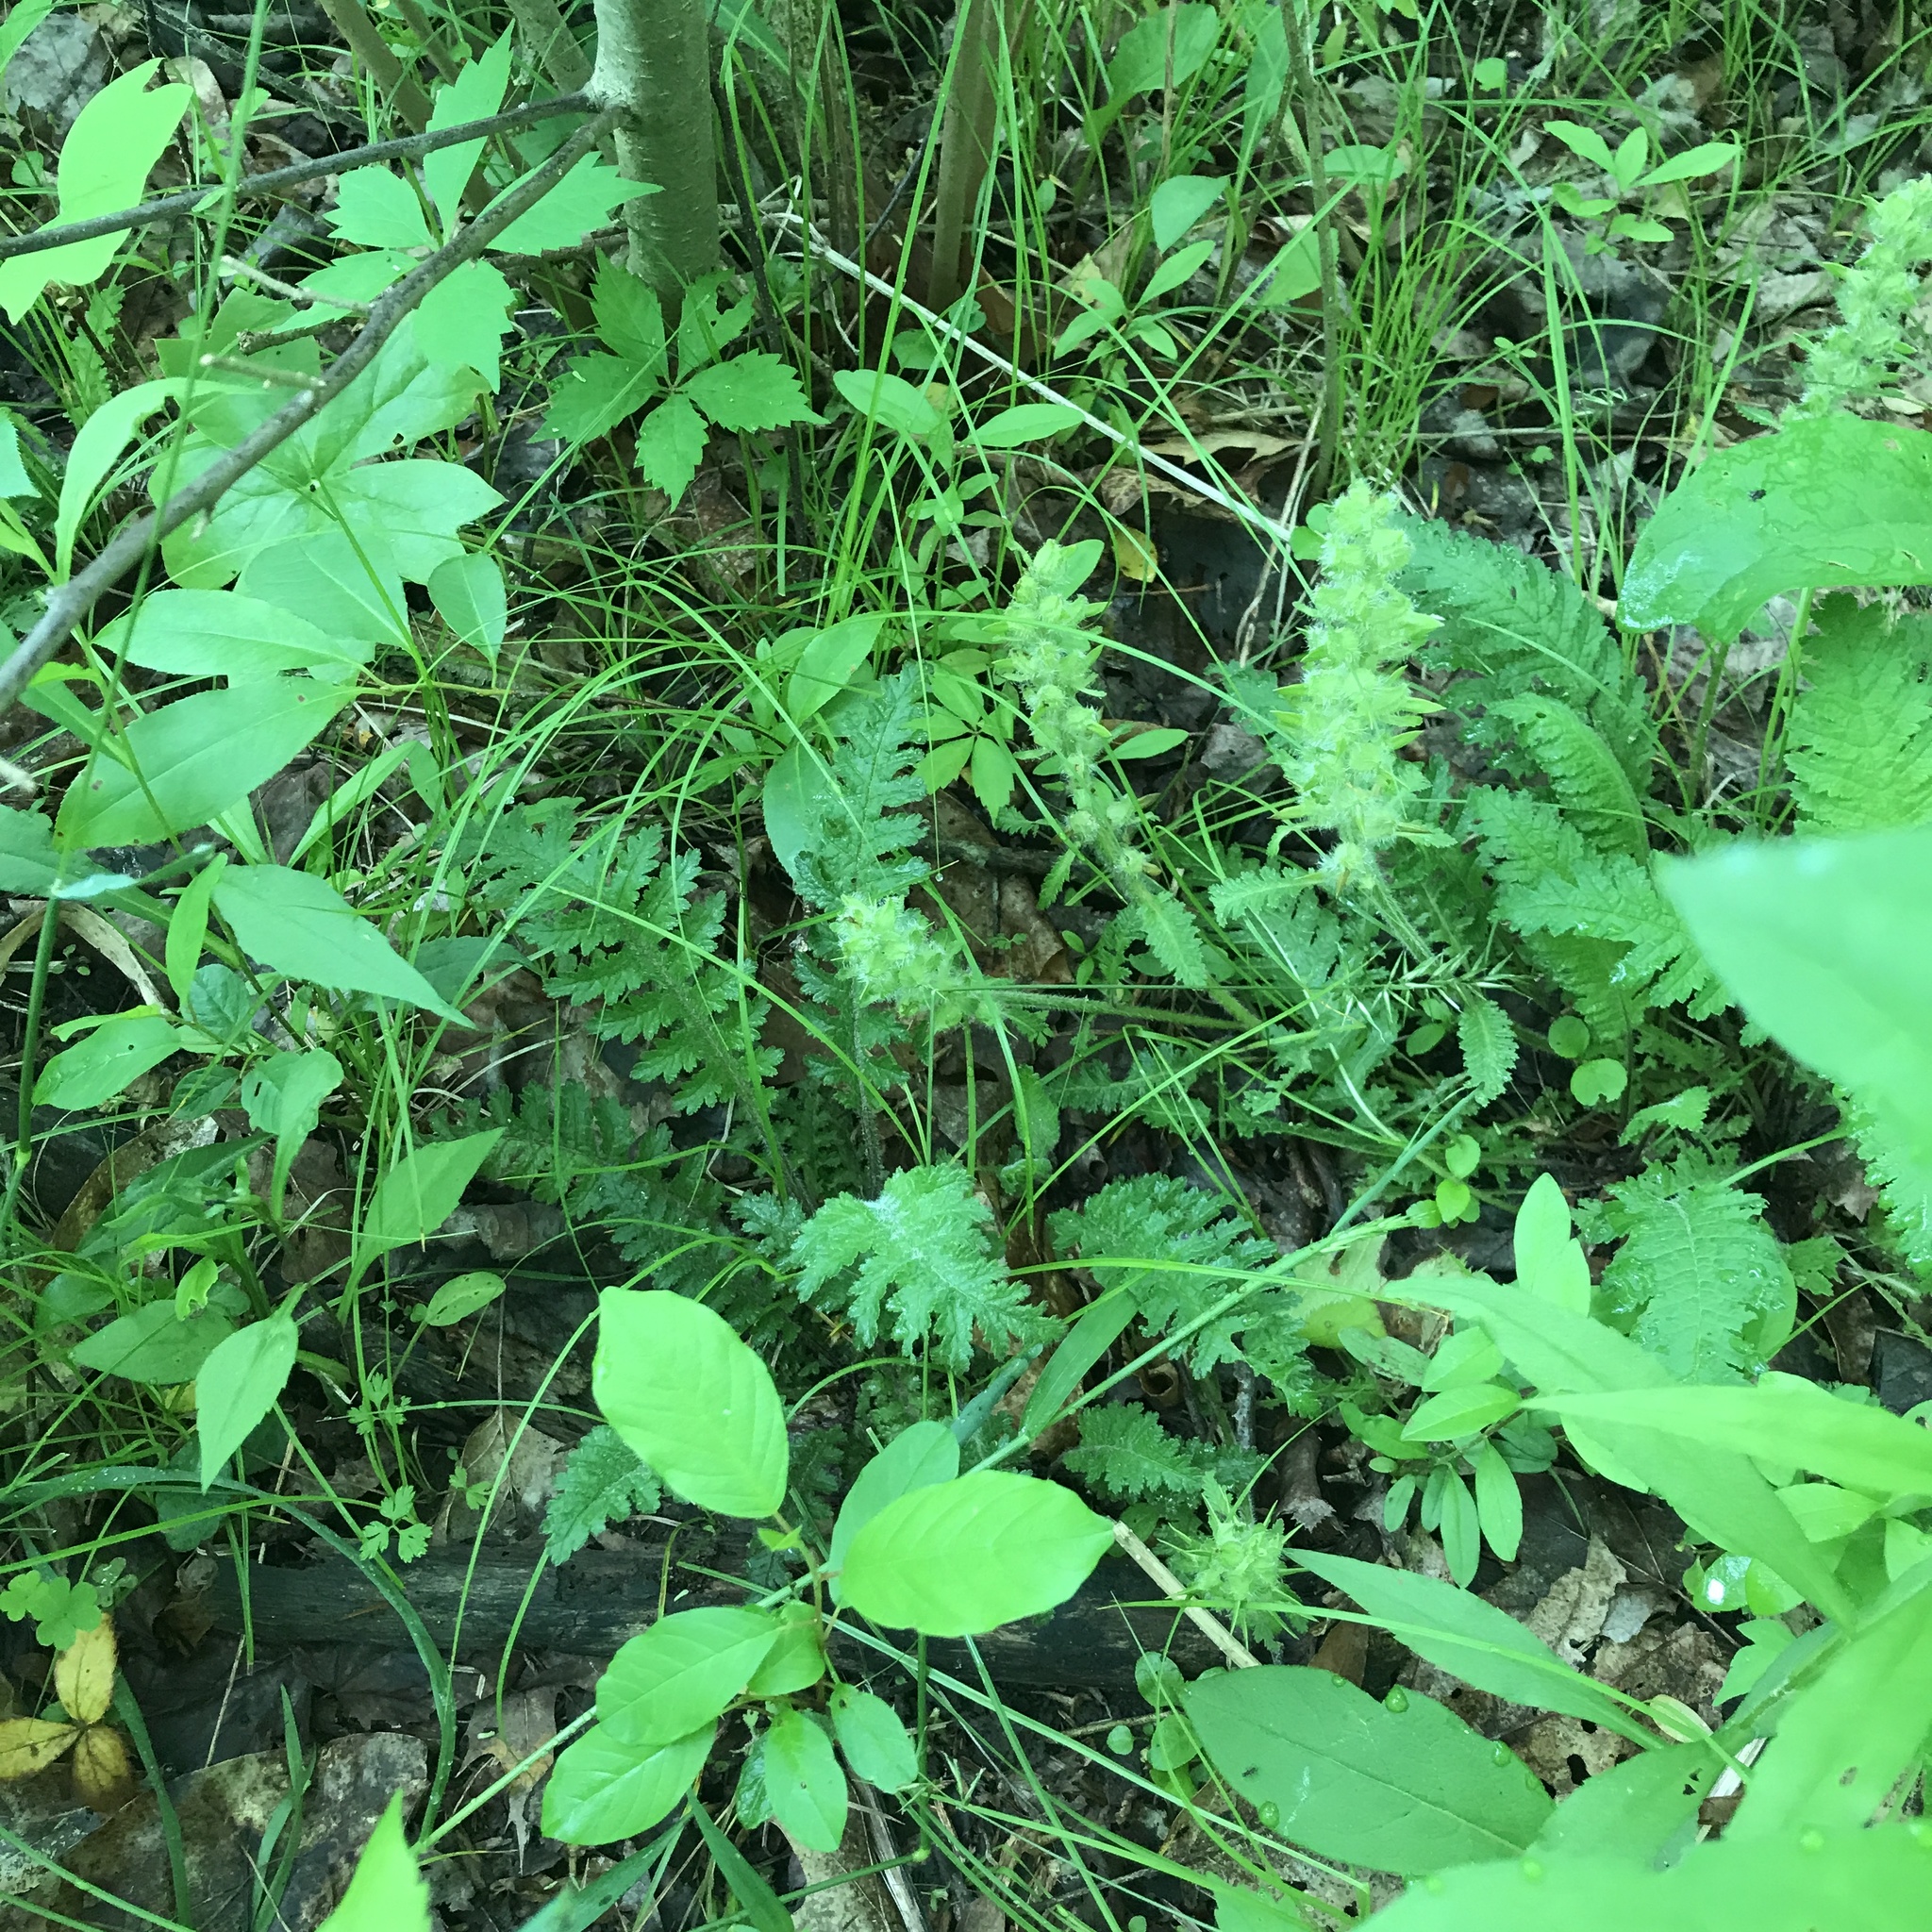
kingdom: Plantae
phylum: Tracheophyta
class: Magnoliopsida
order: Lamiales
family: Orobanchaceae
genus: Pedicularis
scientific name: Pedicularis canadensis
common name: Early lousewort
